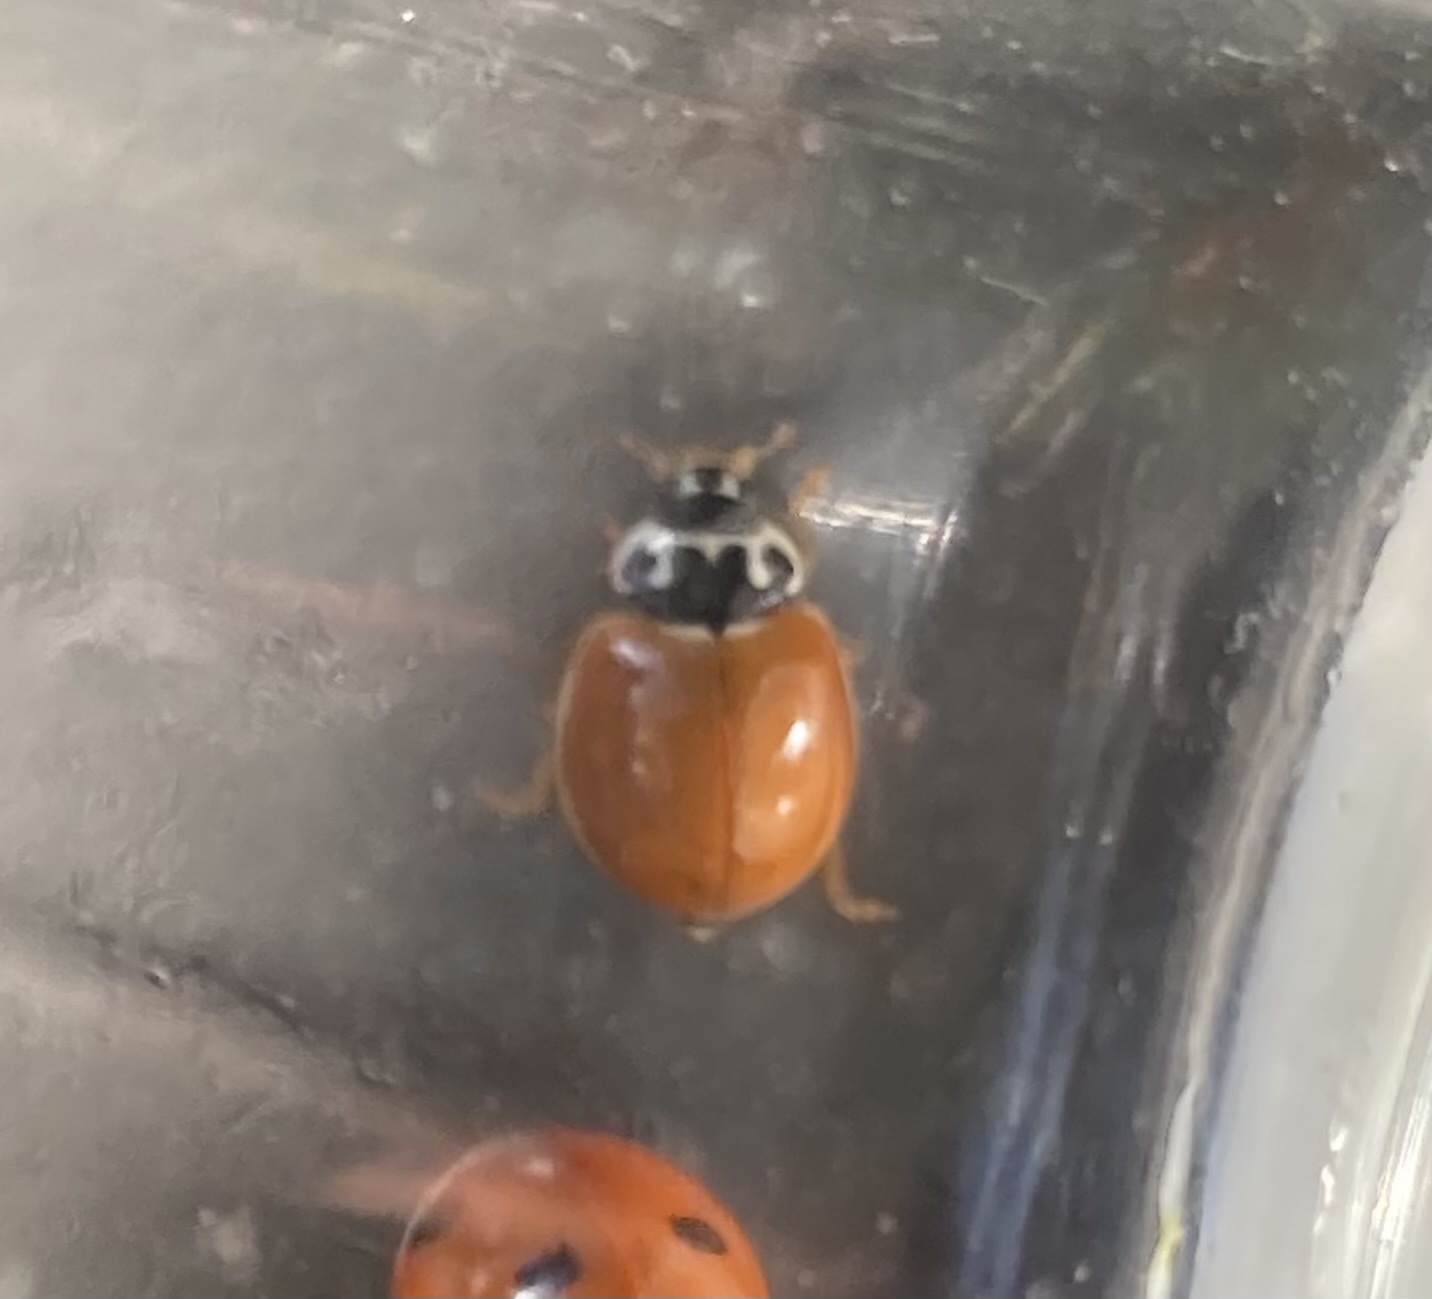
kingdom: Animalia
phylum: Arthropoda
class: Insecta
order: Coleoptera
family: Coccinellidae
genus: Cycloneda
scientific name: Cycloneda munda
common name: Polished lady beetle
